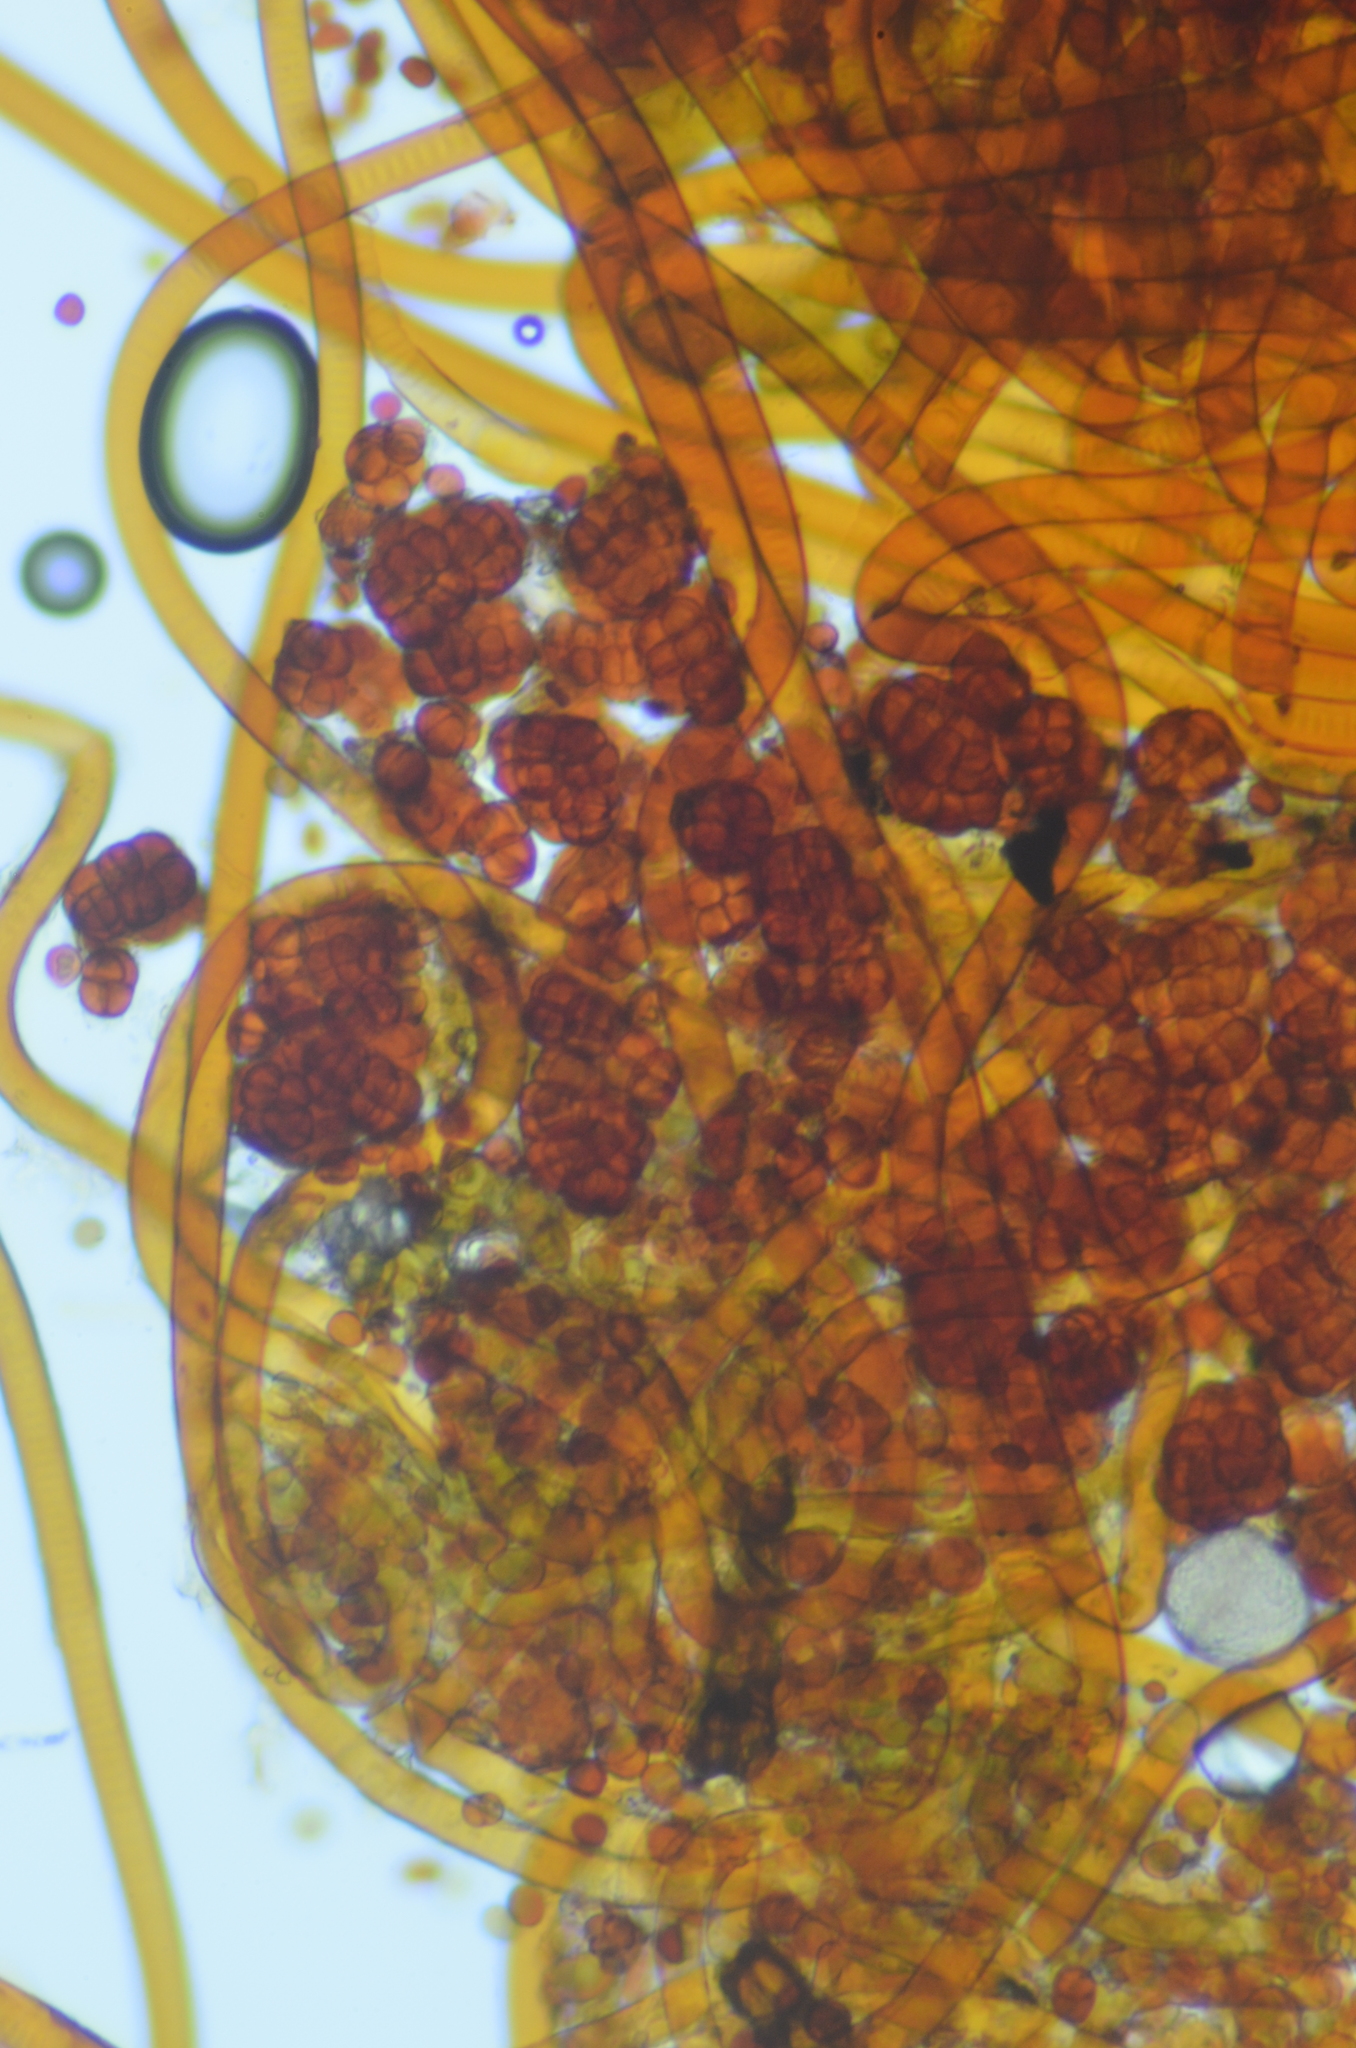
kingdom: Bacteria
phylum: Cyanobacteria
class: Cyanobacteriia
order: Cyanobacteriales
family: Chroococcidiopsidaceae
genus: Gloeocapsopsis
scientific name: Gloeocapsopsis magma
